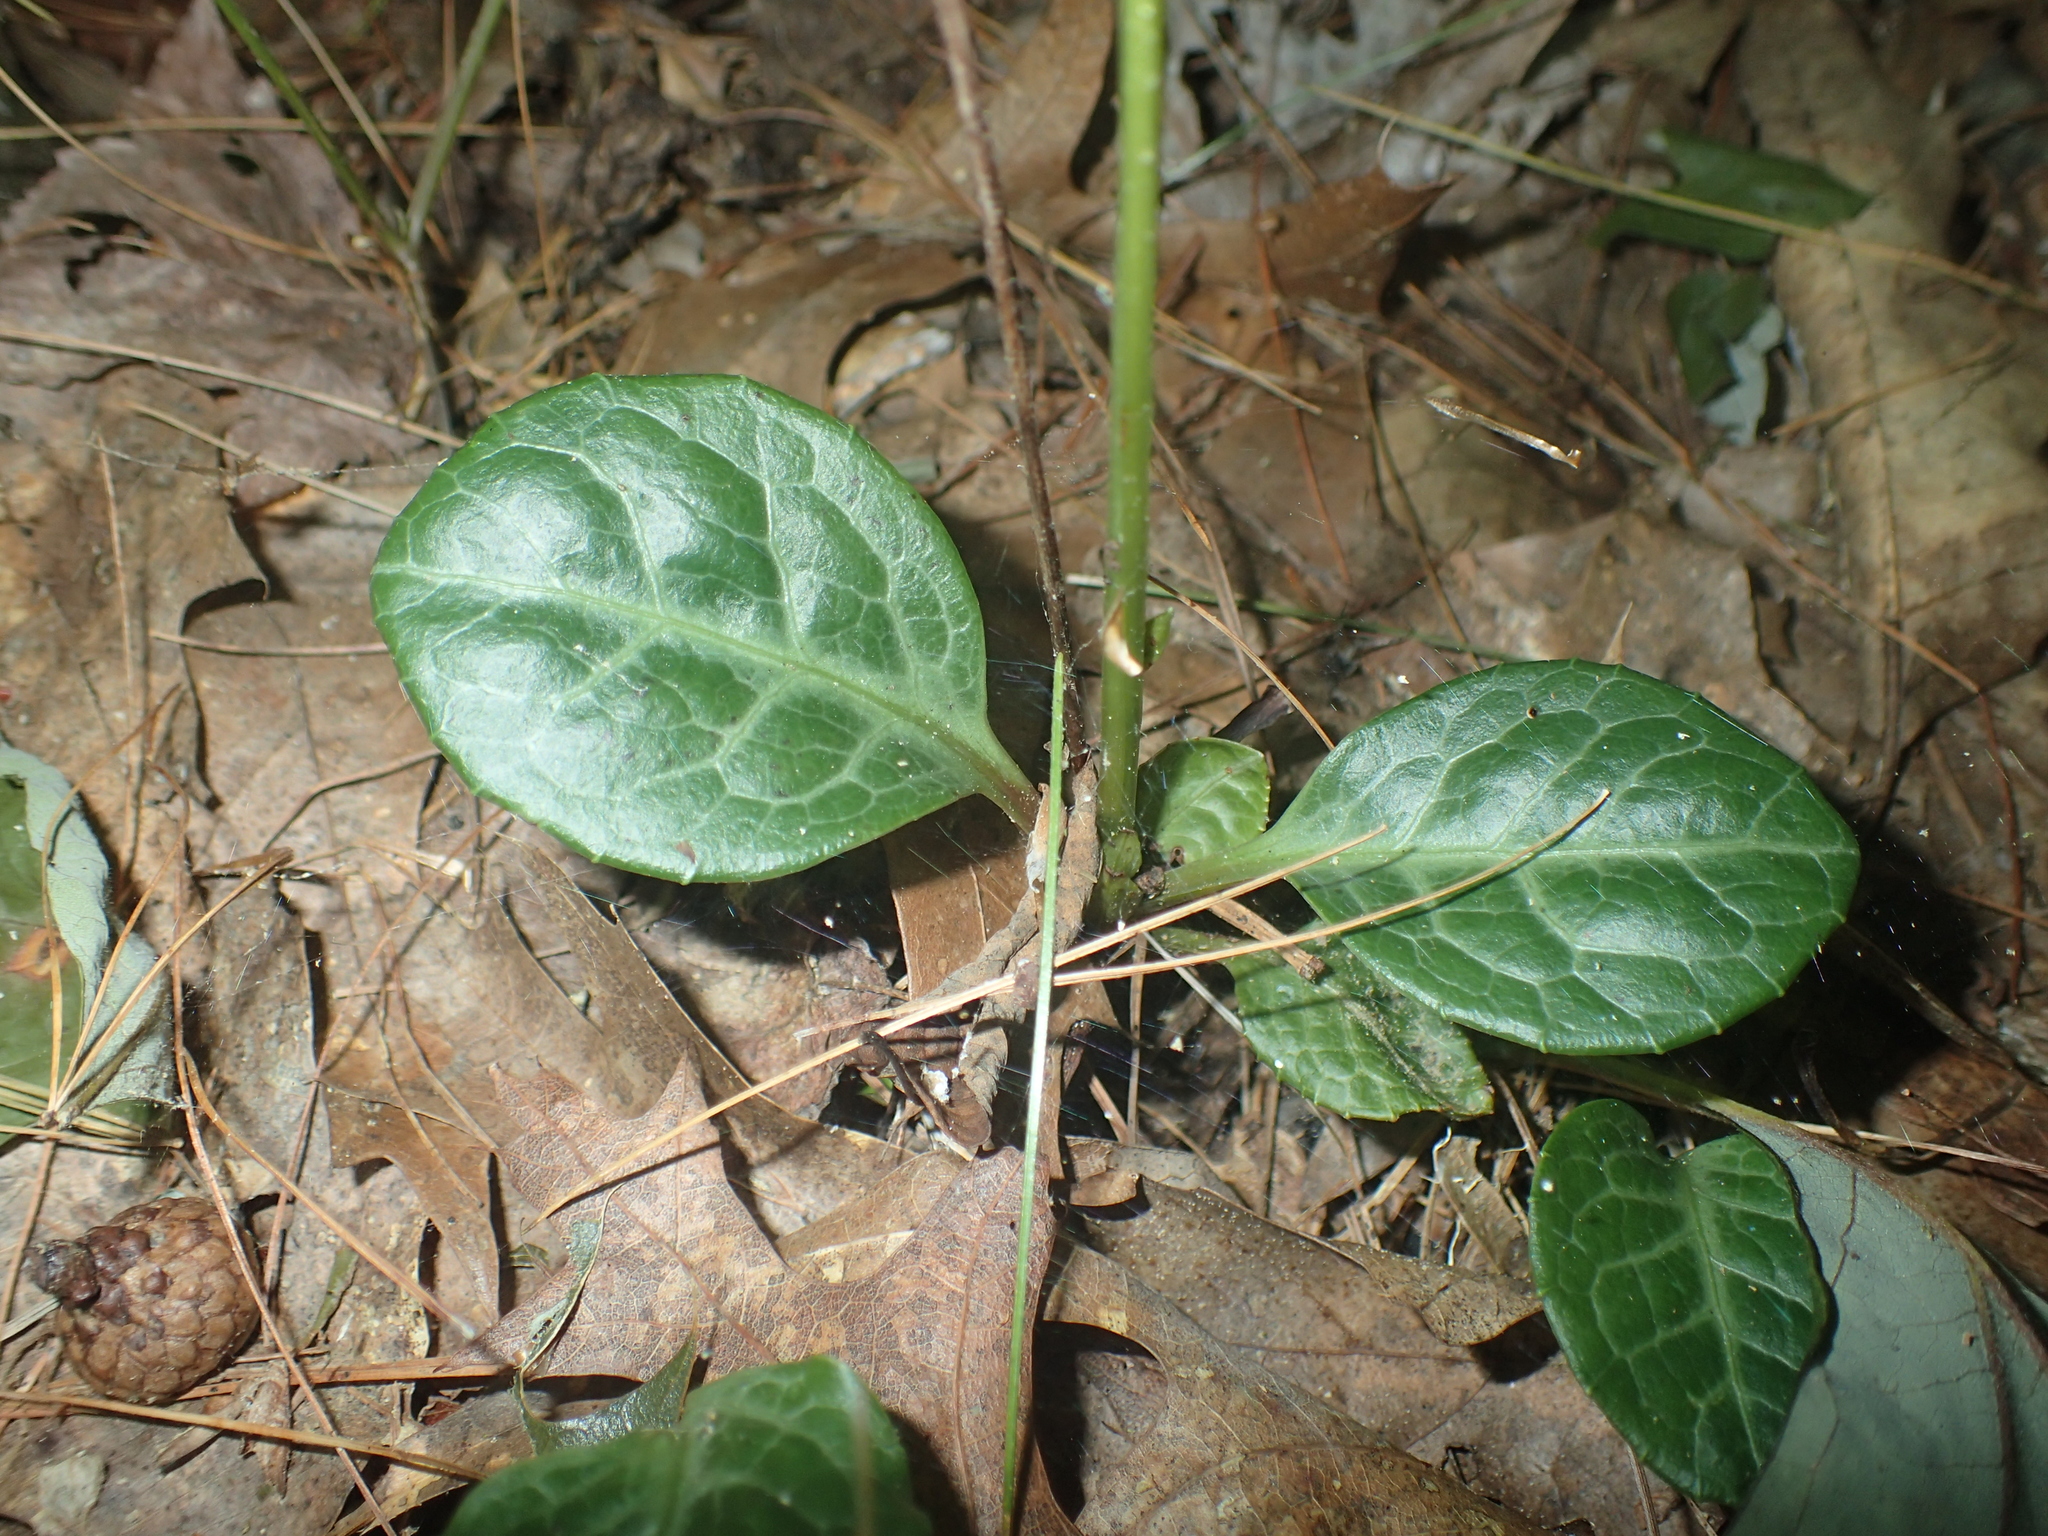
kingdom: Plantae
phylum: Tracheophyta
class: Magnoliopsida
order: Ericales
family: Ericaceae
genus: Pyrola
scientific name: Pyrola americana
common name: American wintergreen
